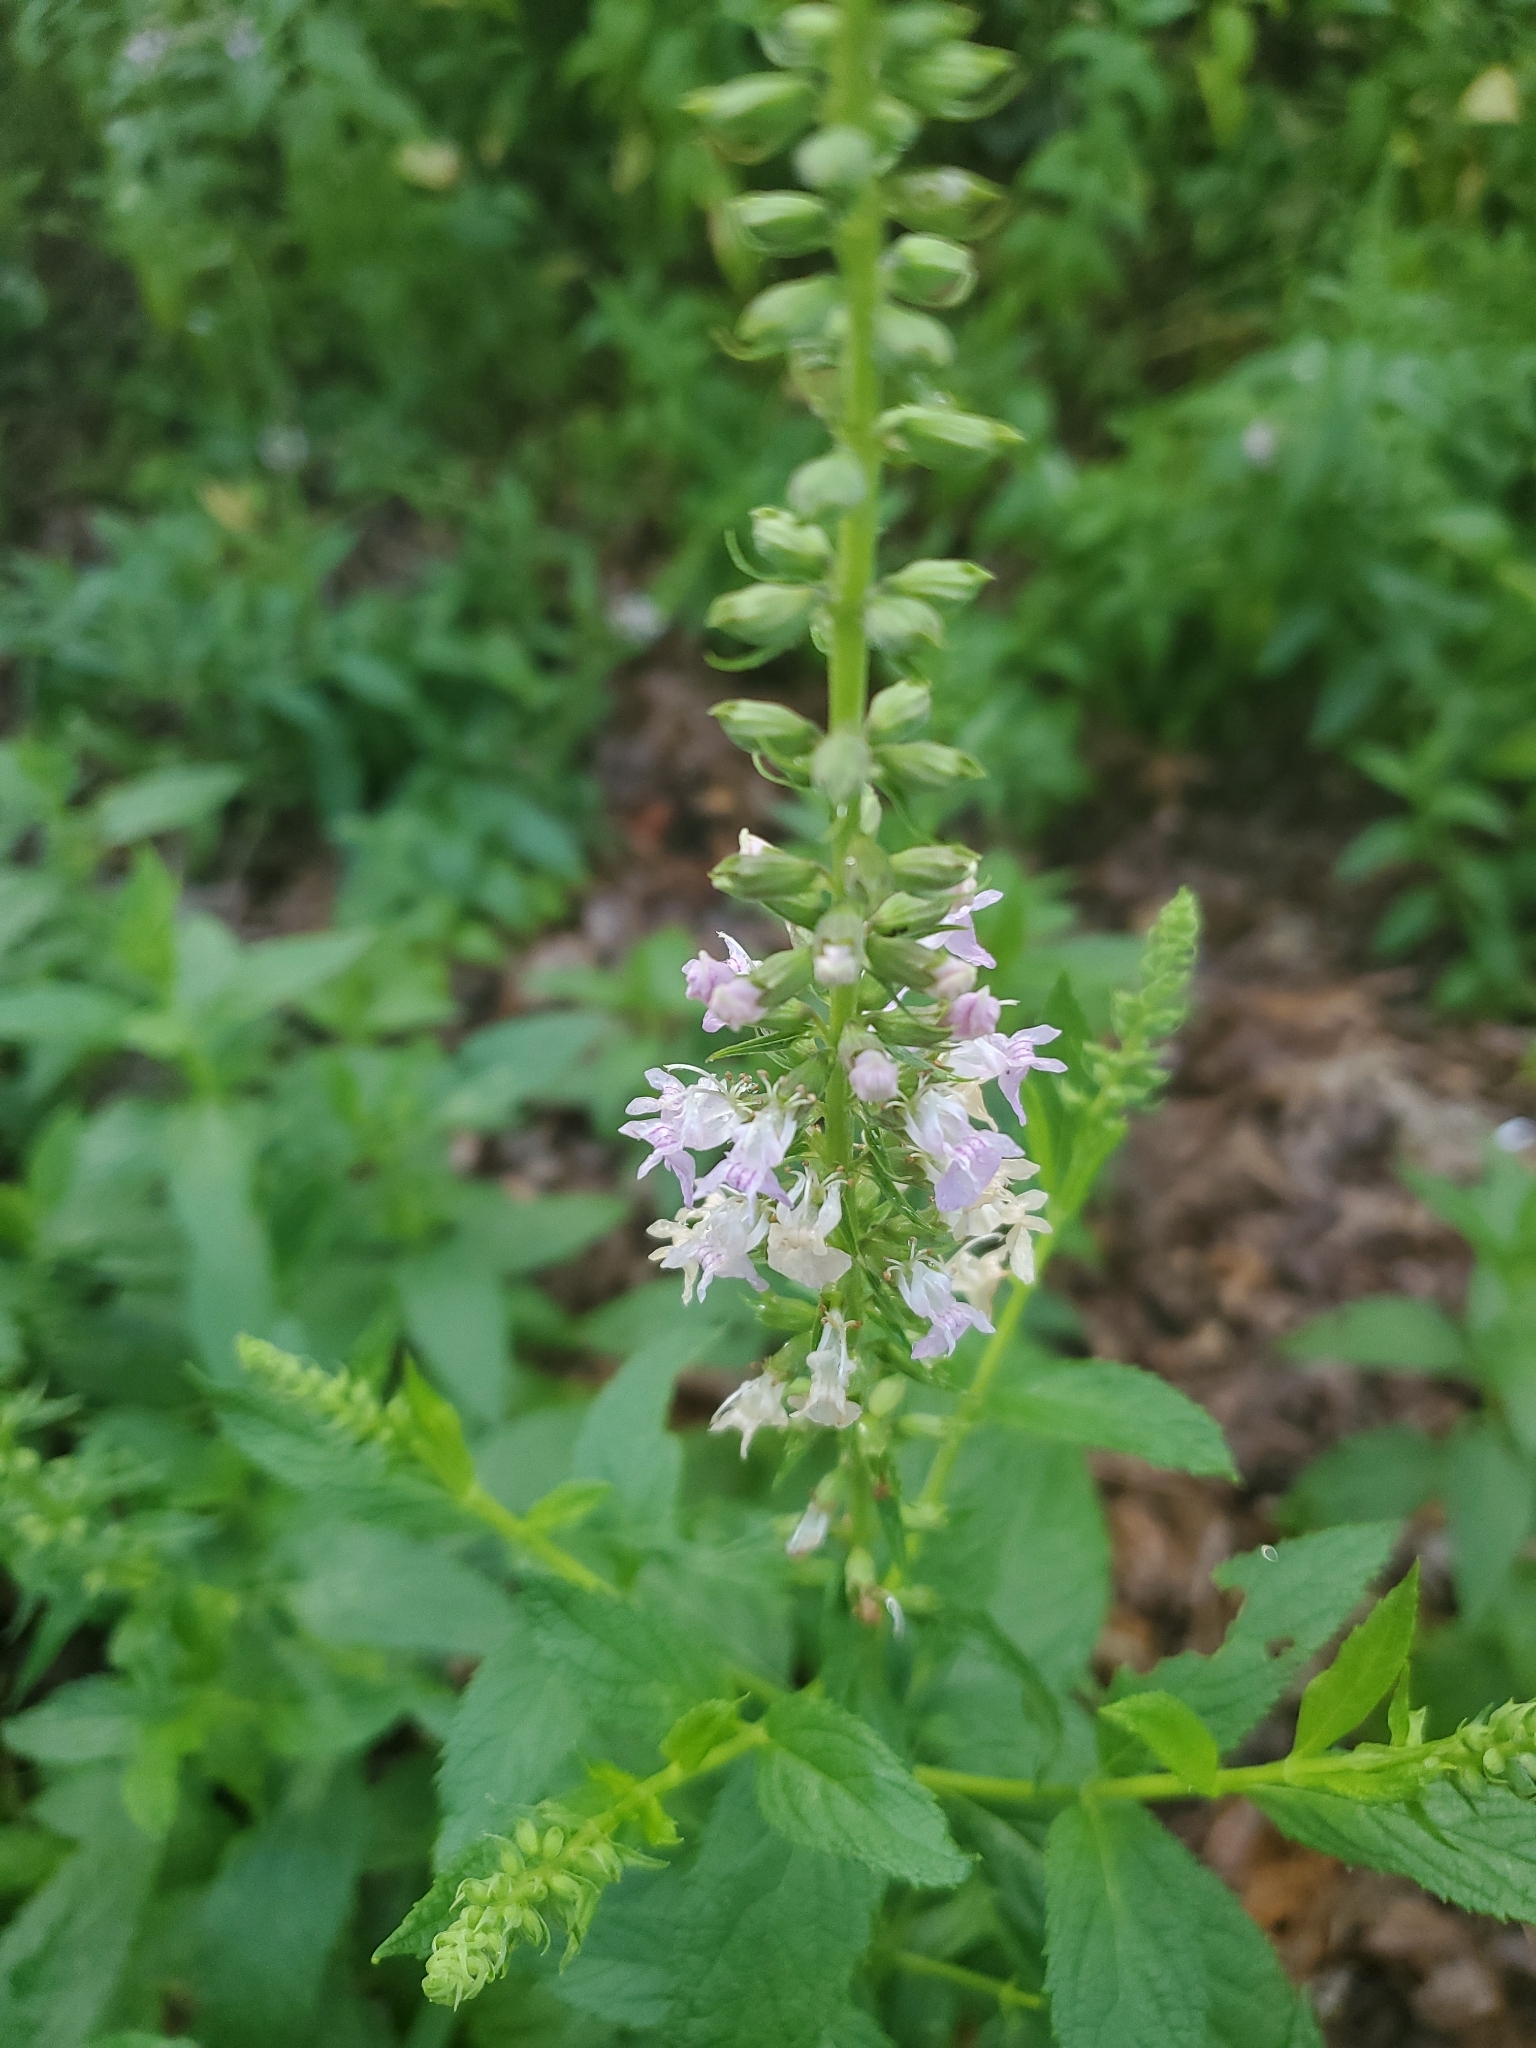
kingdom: Plantae
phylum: Tracheophyta
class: Magnoliopsida
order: Lamiales
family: Lamiaceae
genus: Teucrium
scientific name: Teucrium canadense
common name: American germander
